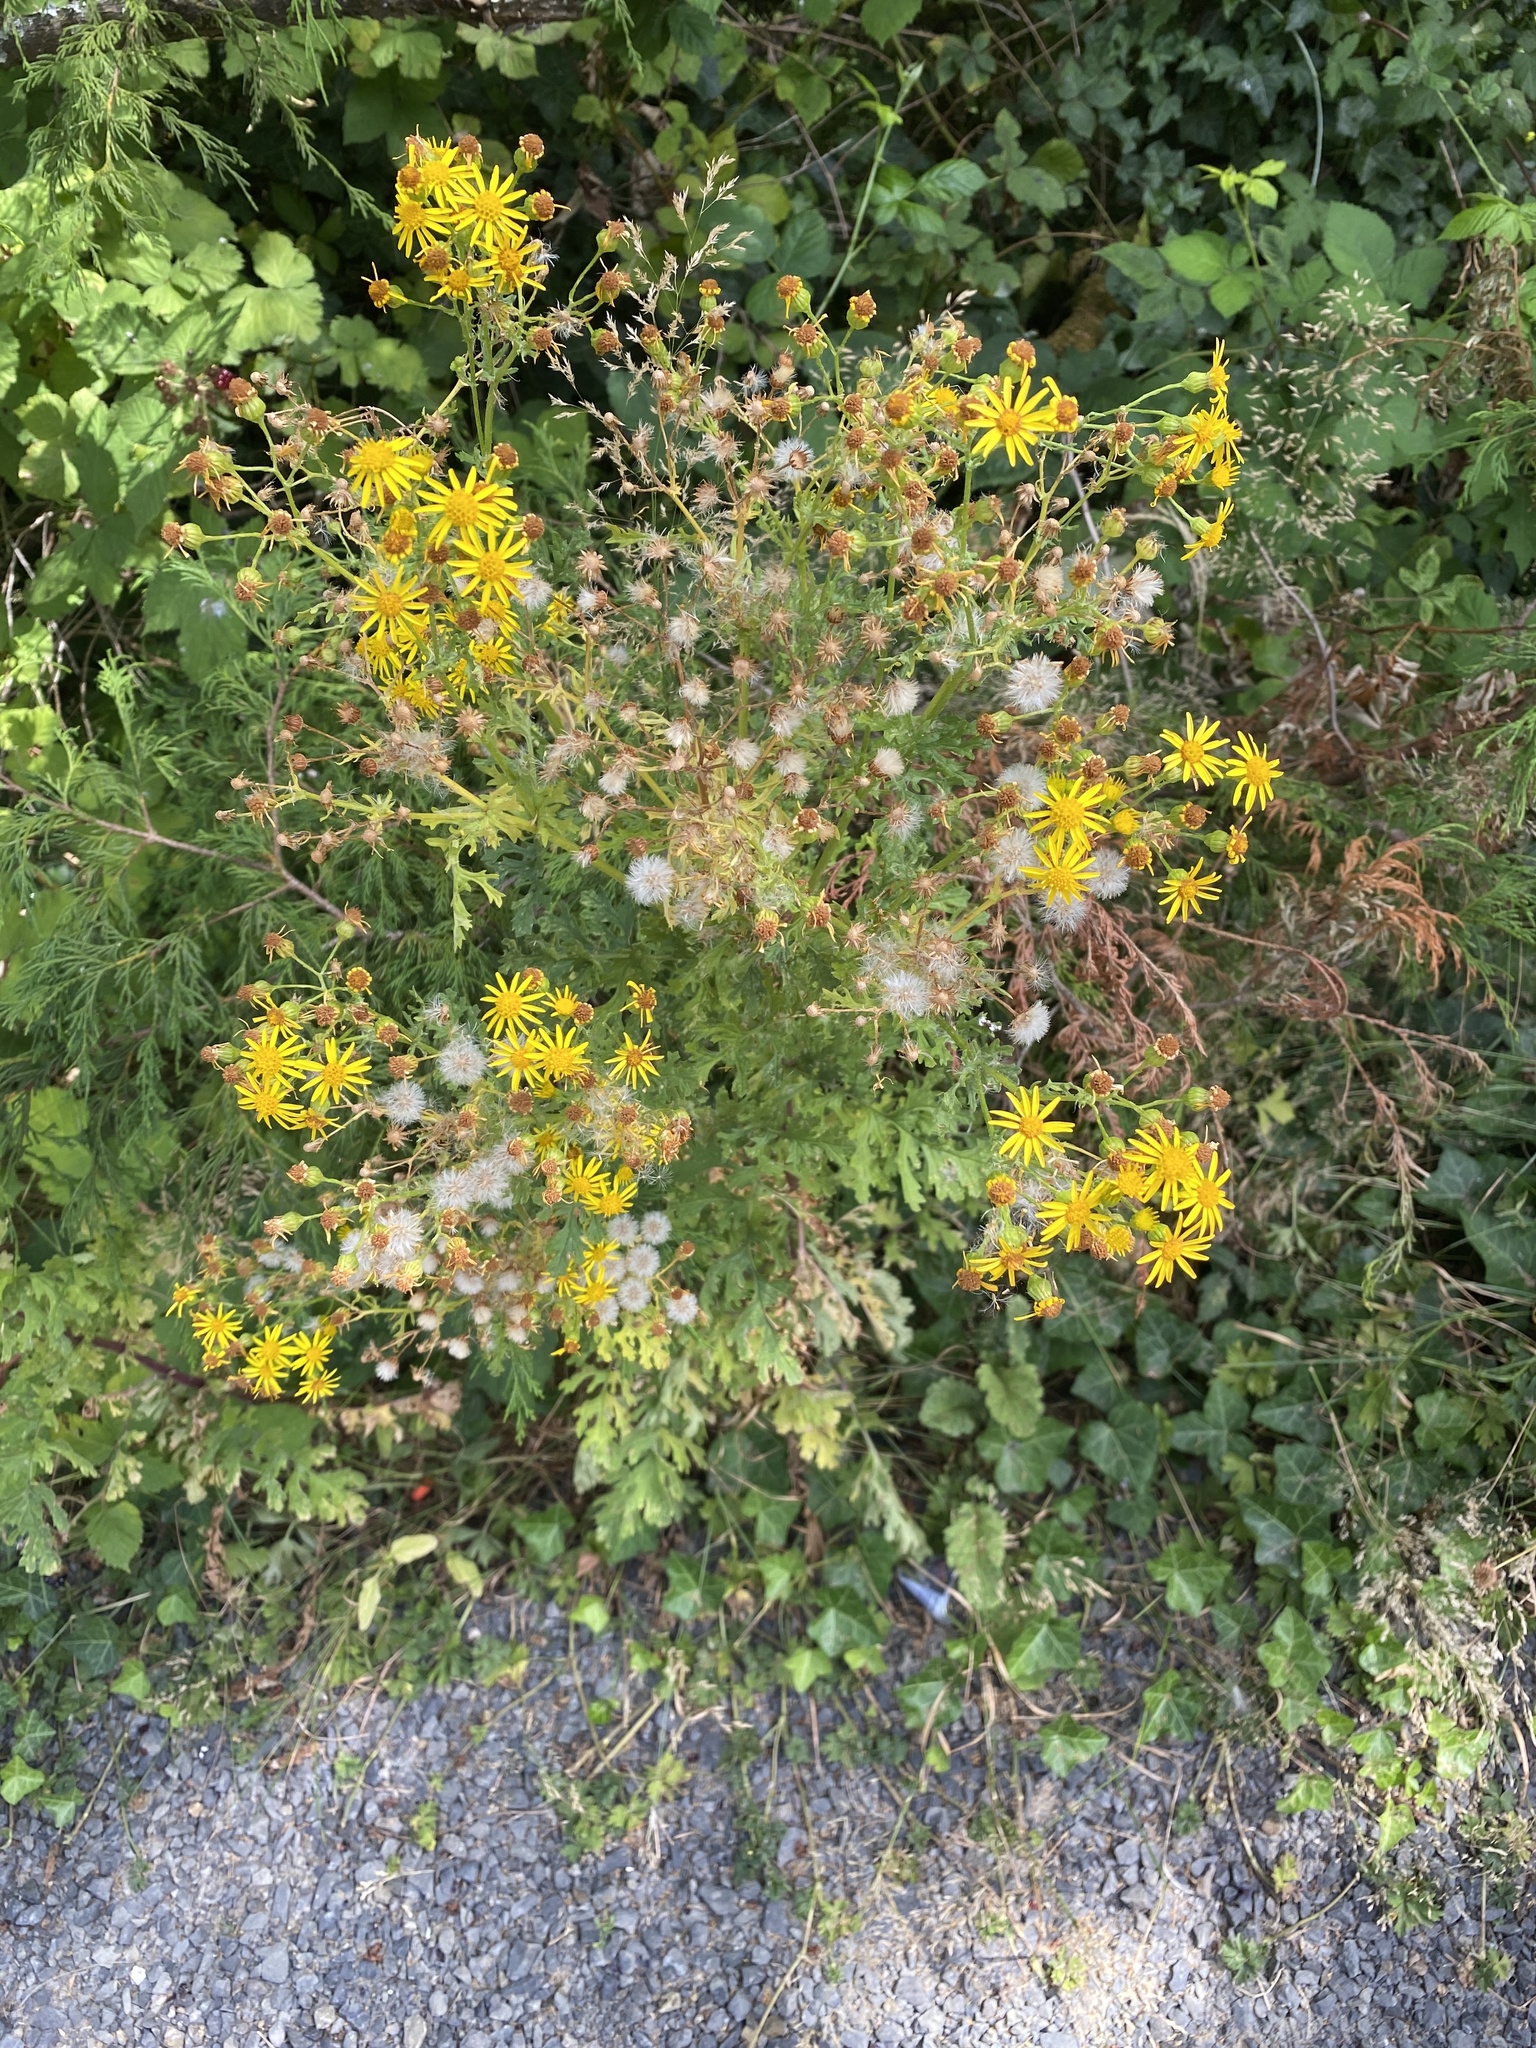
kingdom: Plantae
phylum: Tracheophyta
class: Magnoliopsida
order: Asterales
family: Asteraceae
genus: Jacobaea
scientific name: Jacobaea vulgaris
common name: Stinking willie
